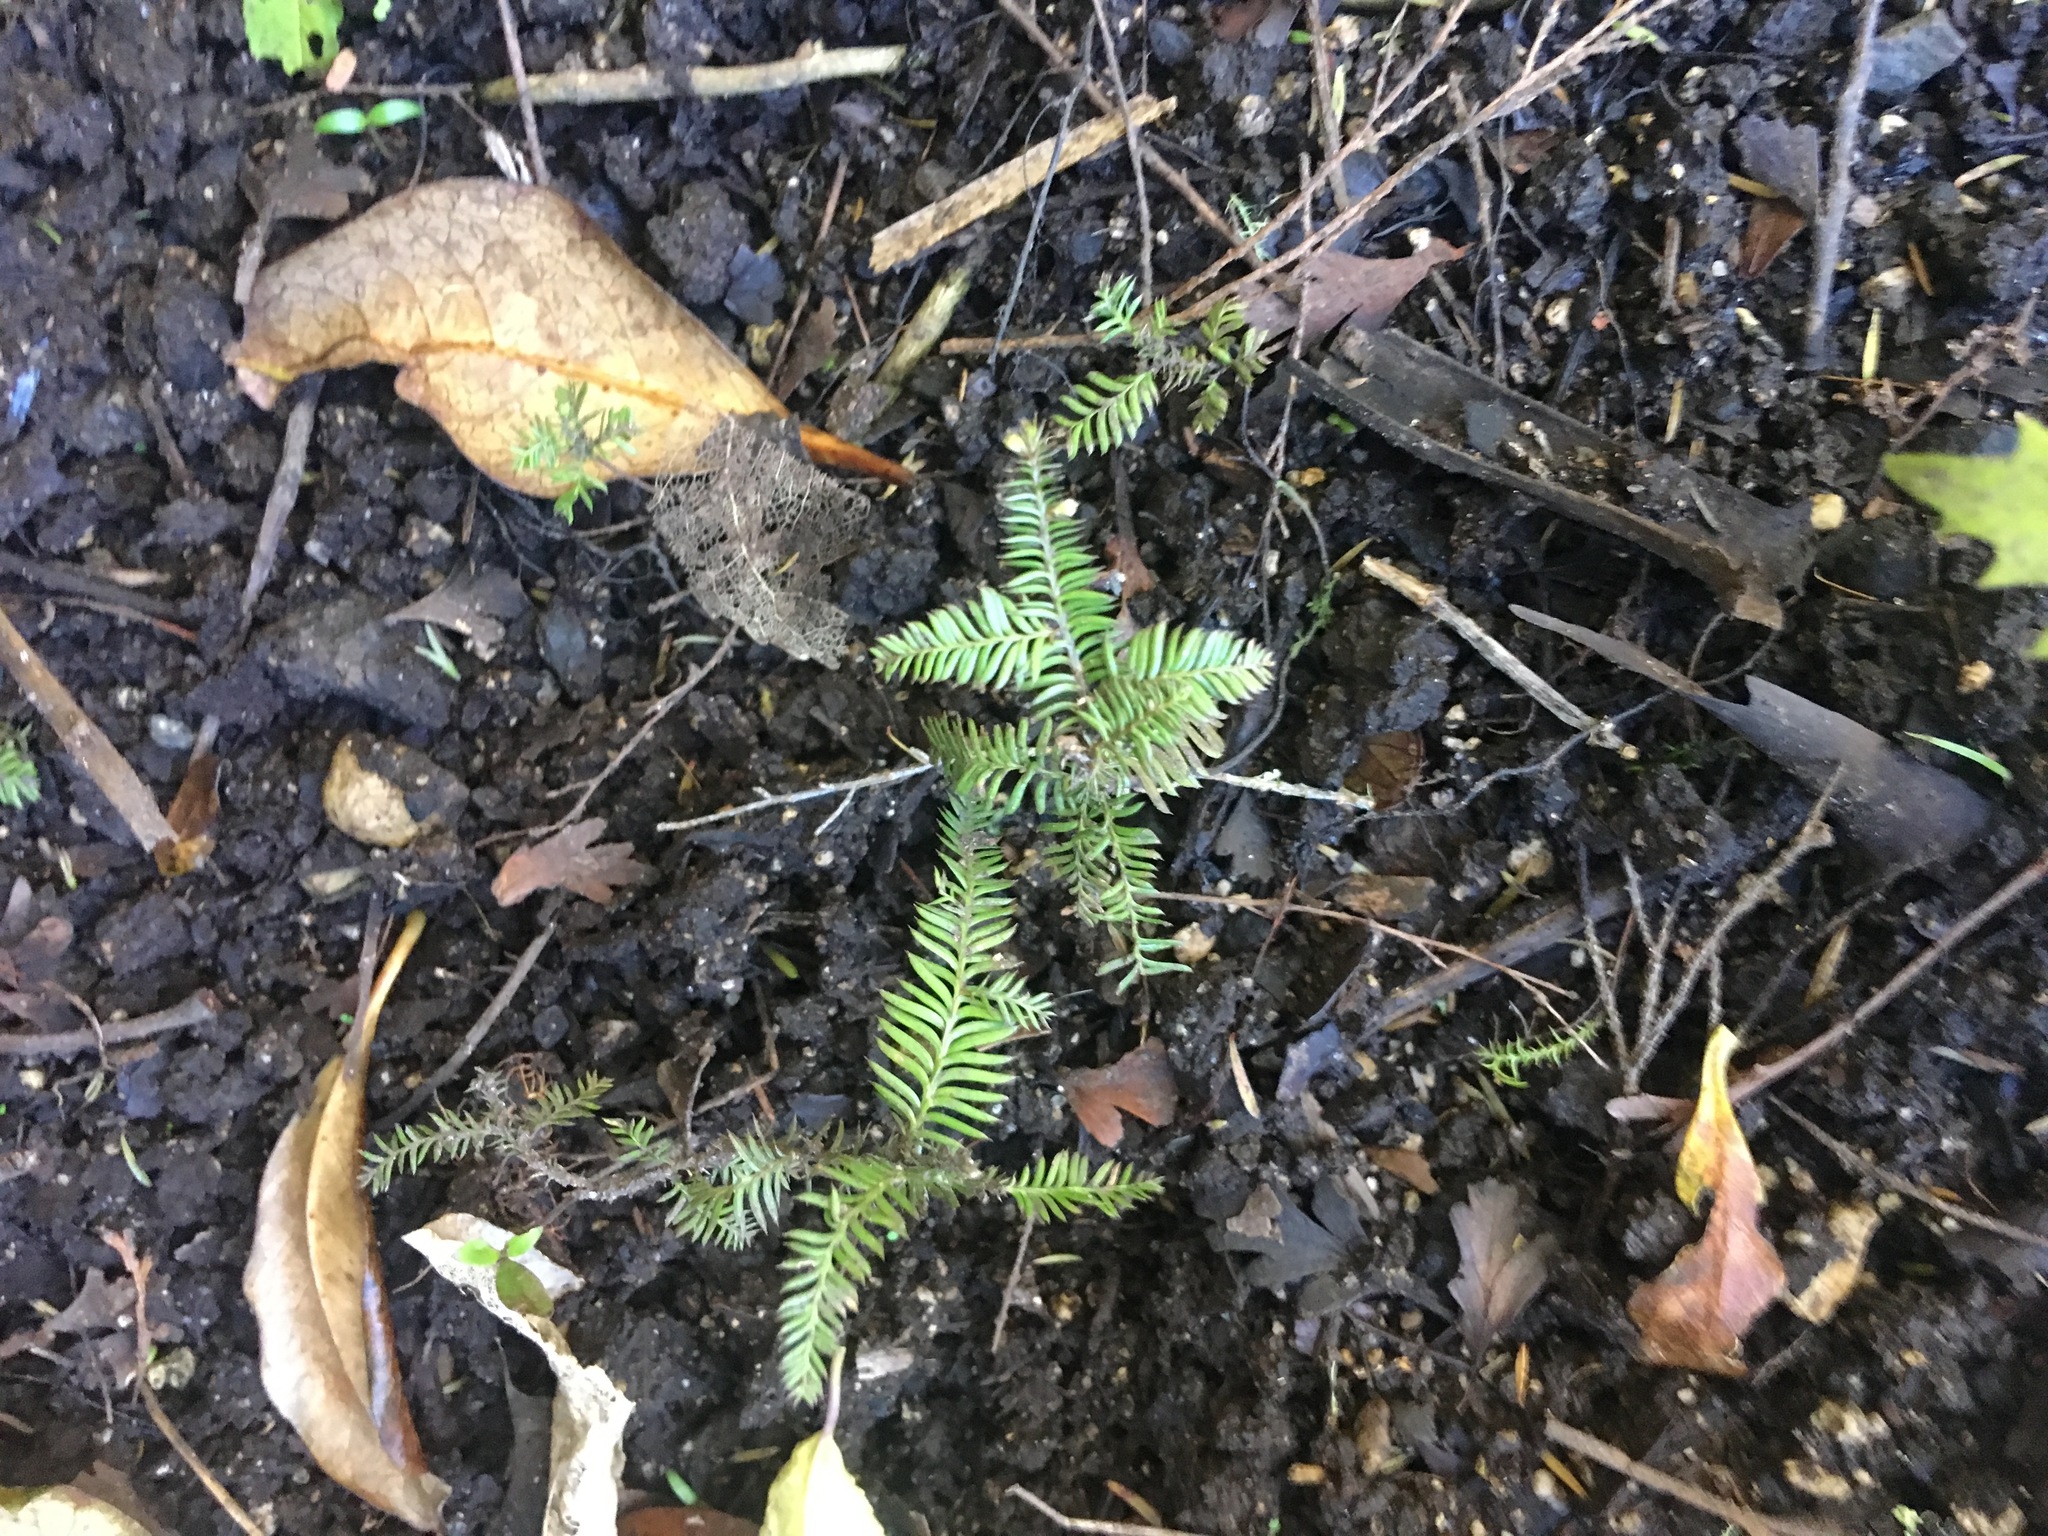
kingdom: Plantae
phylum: Tracheophyta
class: Pinopsida
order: Pinales
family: Podocarpaceae
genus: Dacrycarpus
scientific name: Dacrycarpus dacrydioides
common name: White pine
